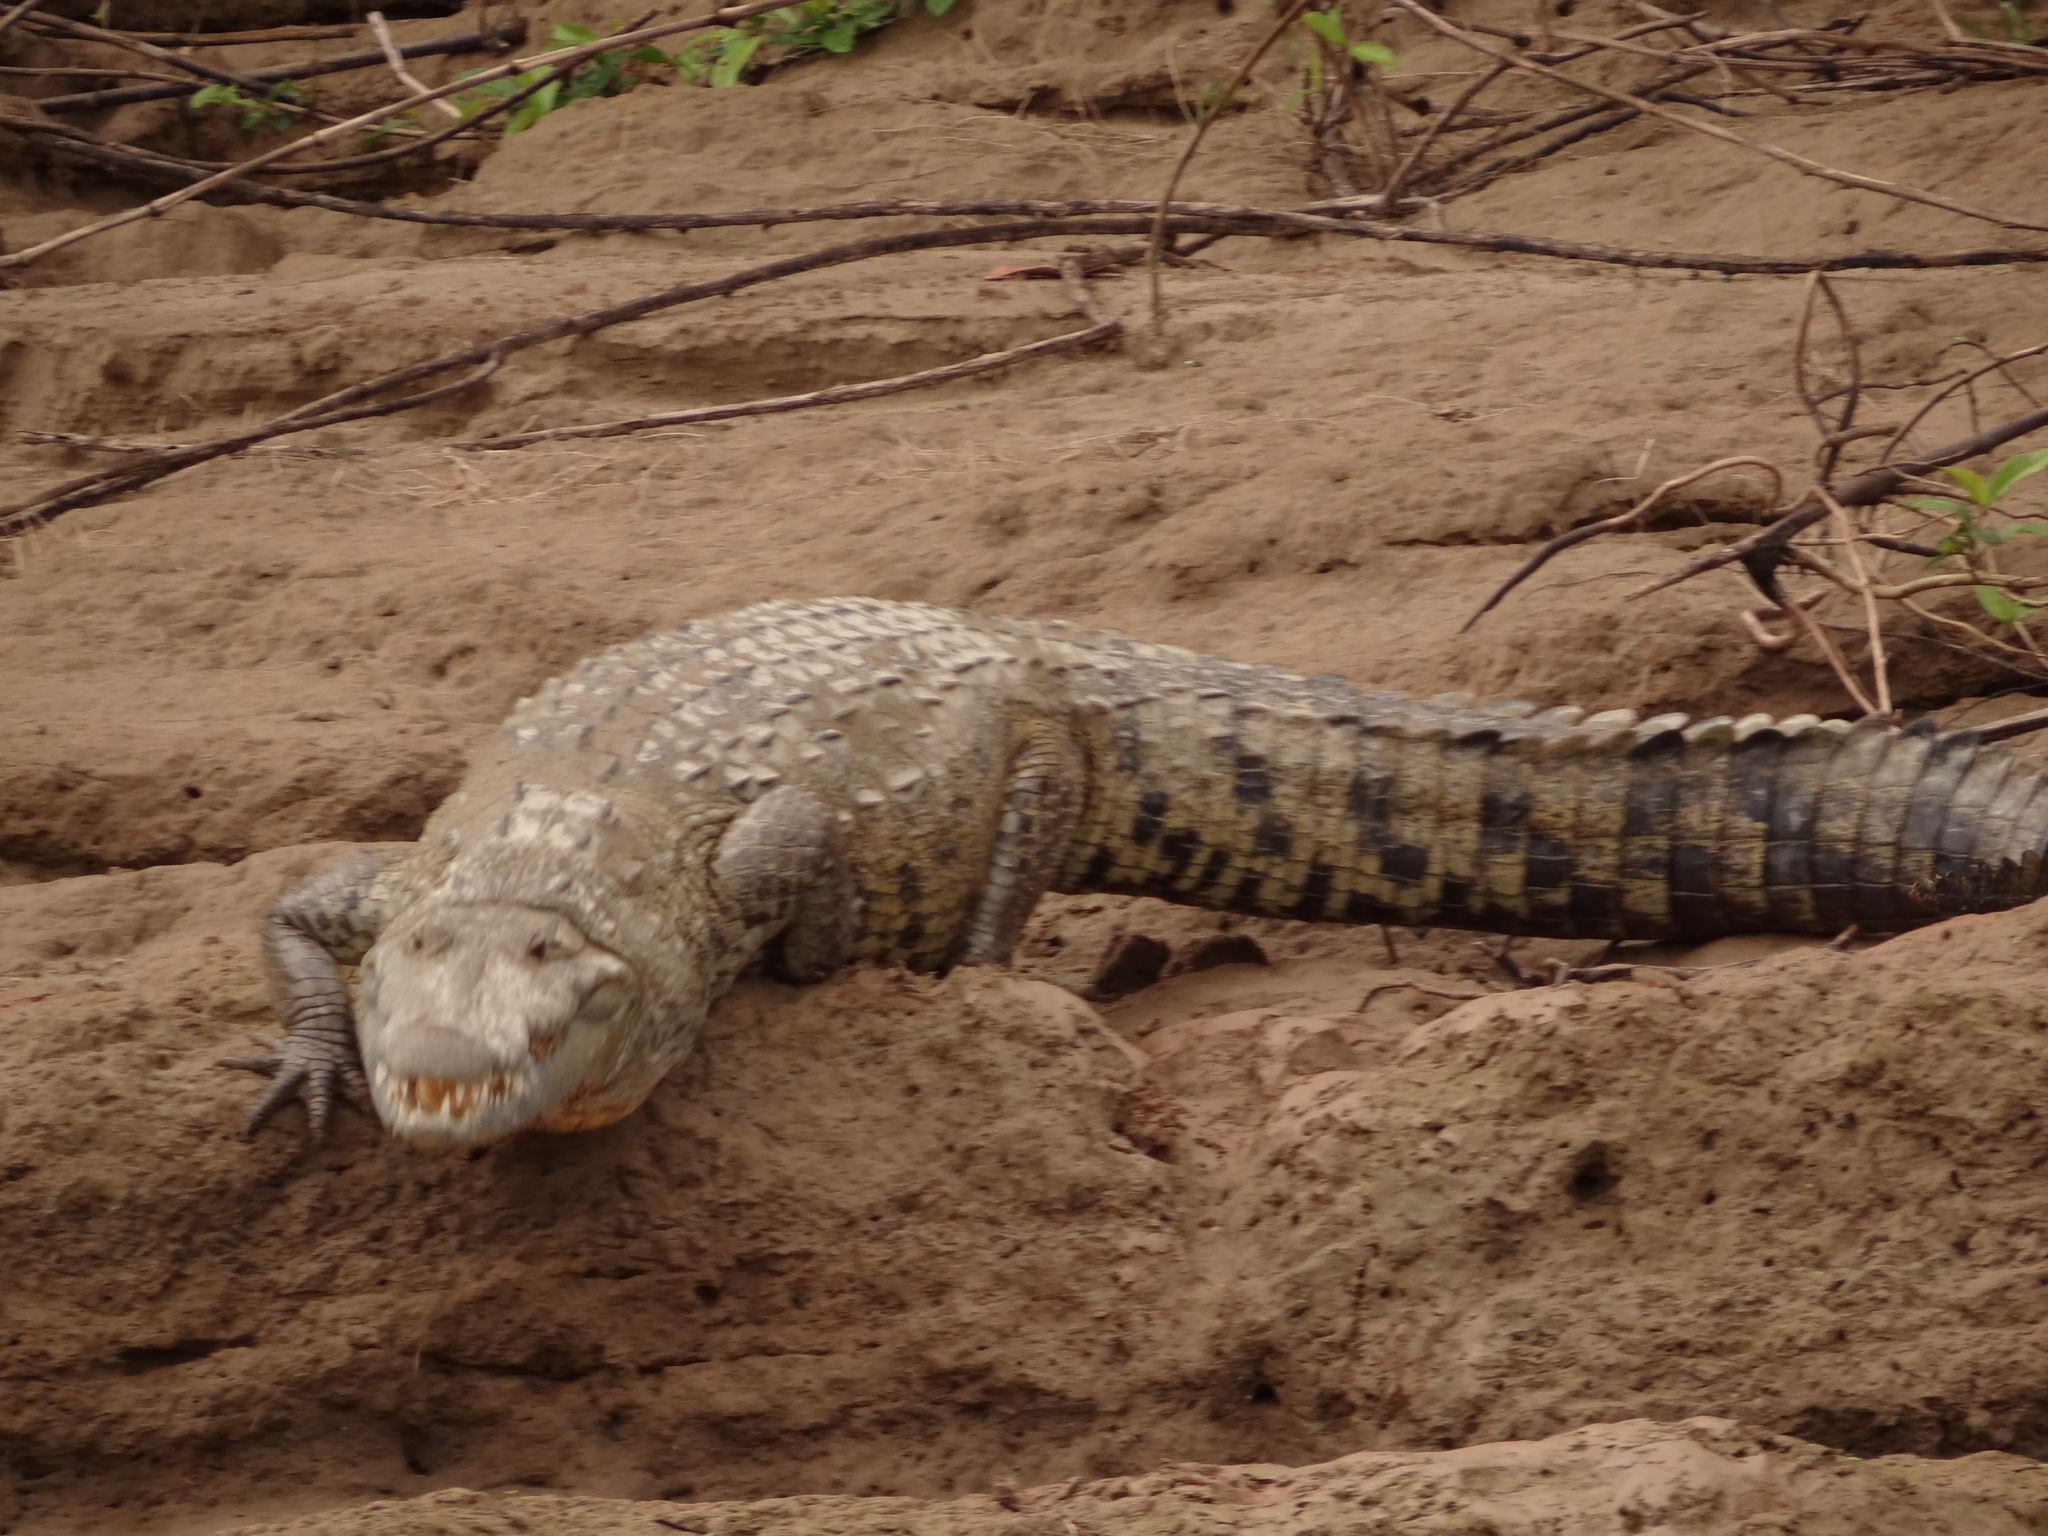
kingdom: Animalia
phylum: Chordata
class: Crocodylia
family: Crocodylidae
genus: Crocodylus
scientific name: Crocodylus moreletii
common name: Morelet's crocodile
